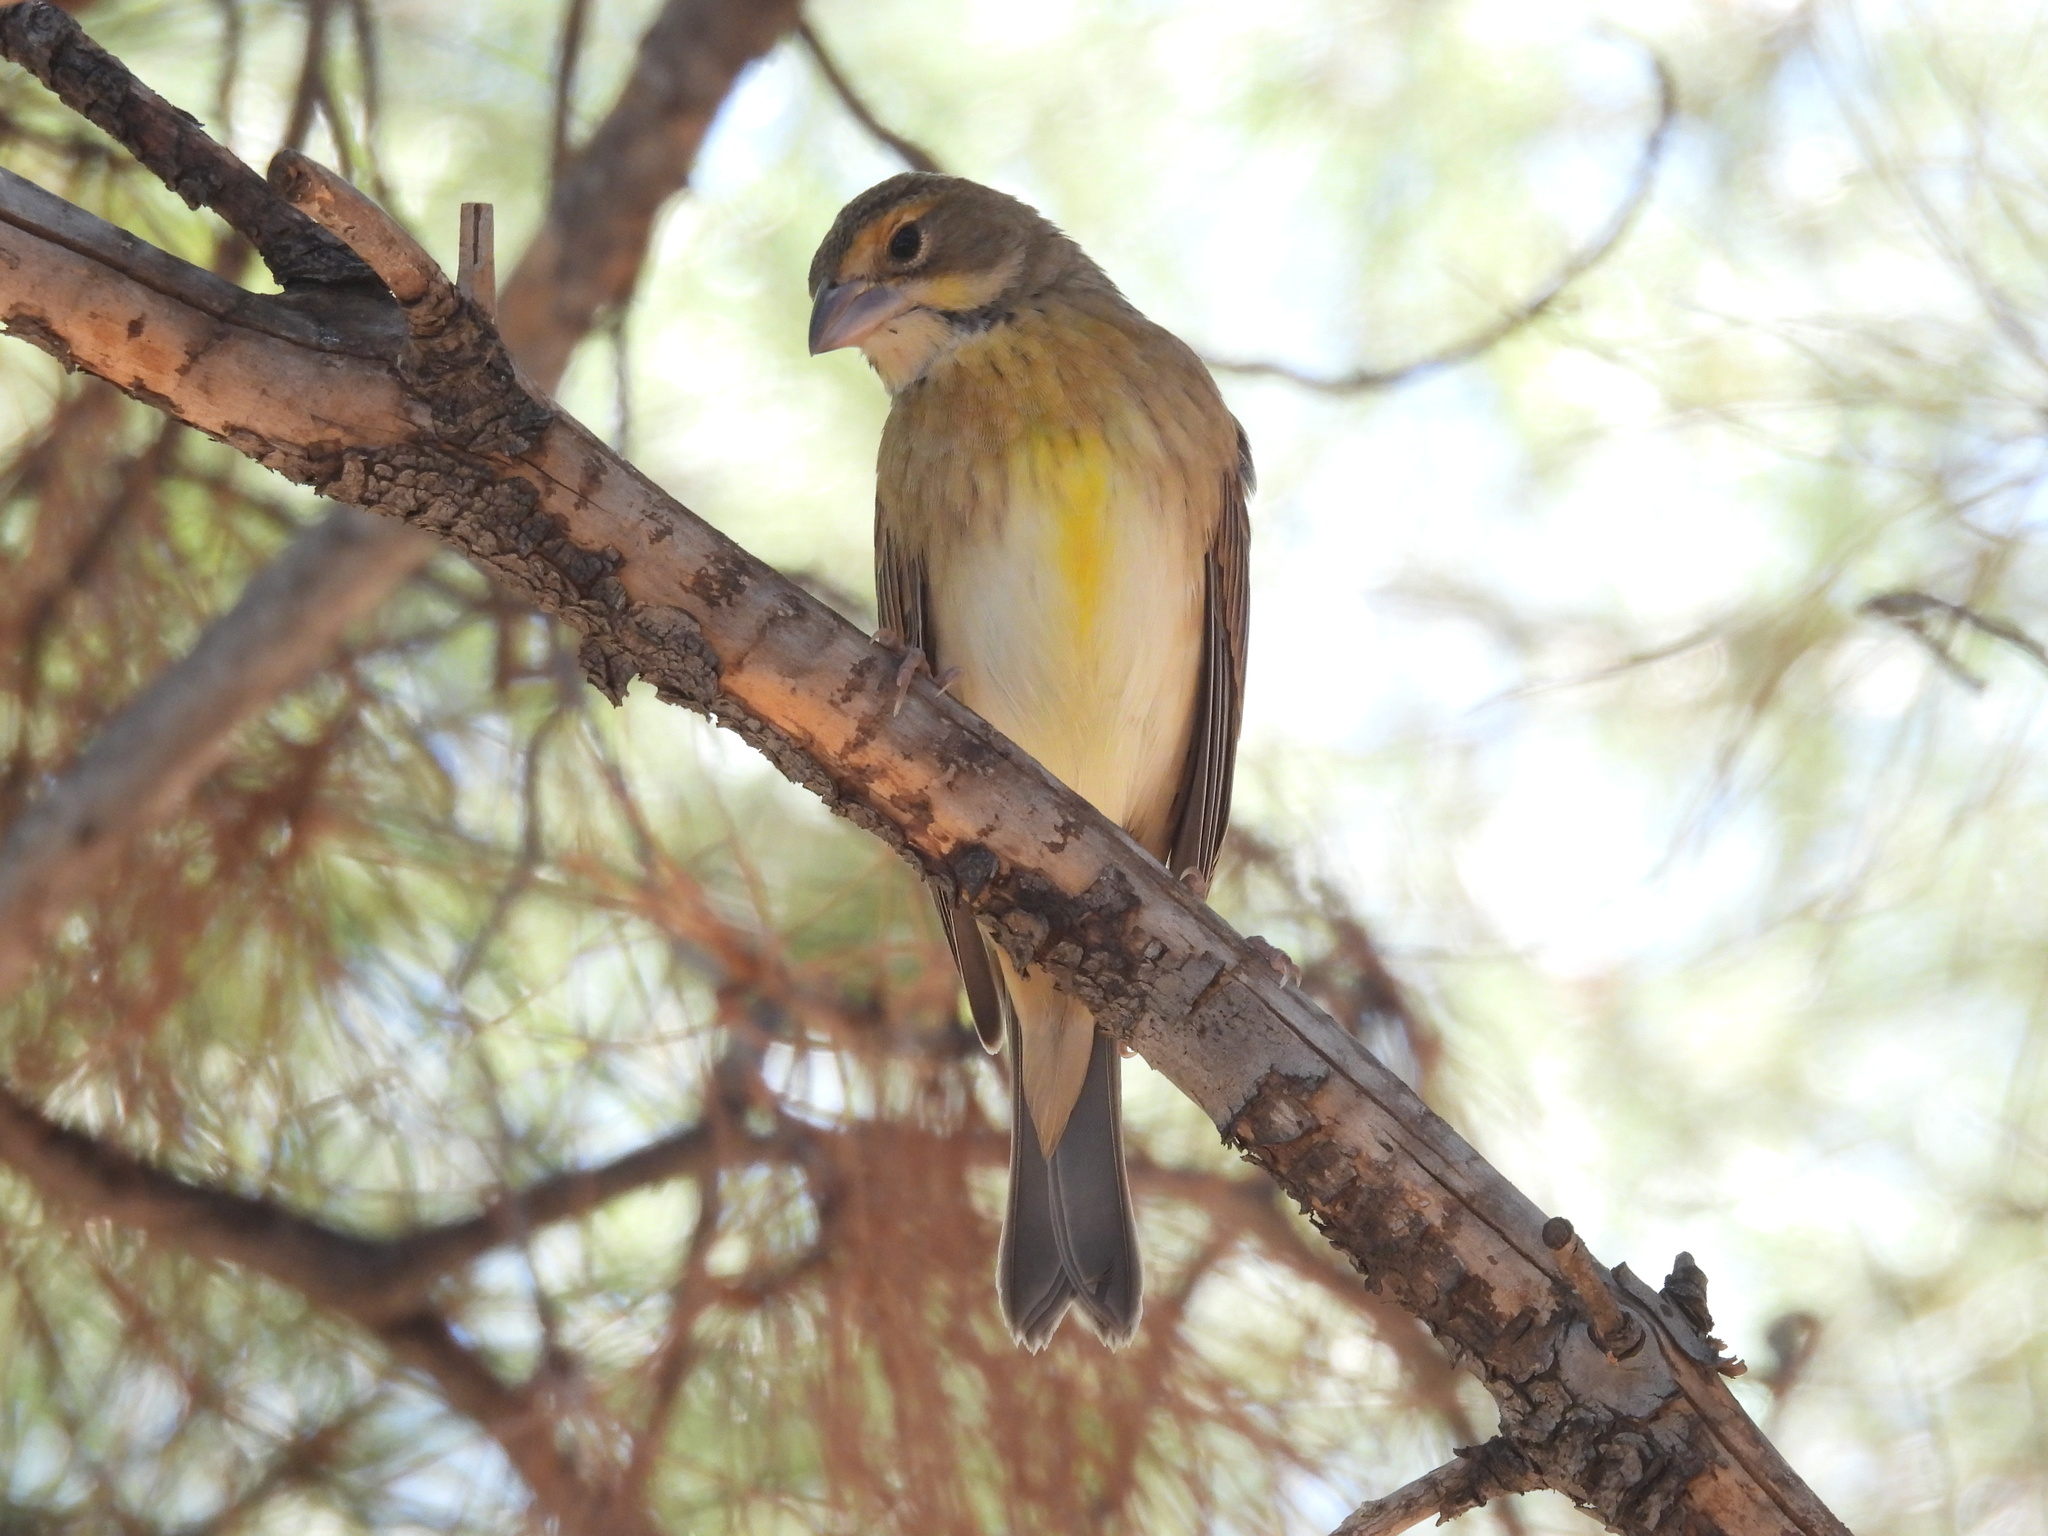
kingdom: Animalia
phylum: Chordata
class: Aves
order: Passeriformes
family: Cardinalidae
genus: Spiza
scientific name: Spiza americana
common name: Dickcissel
